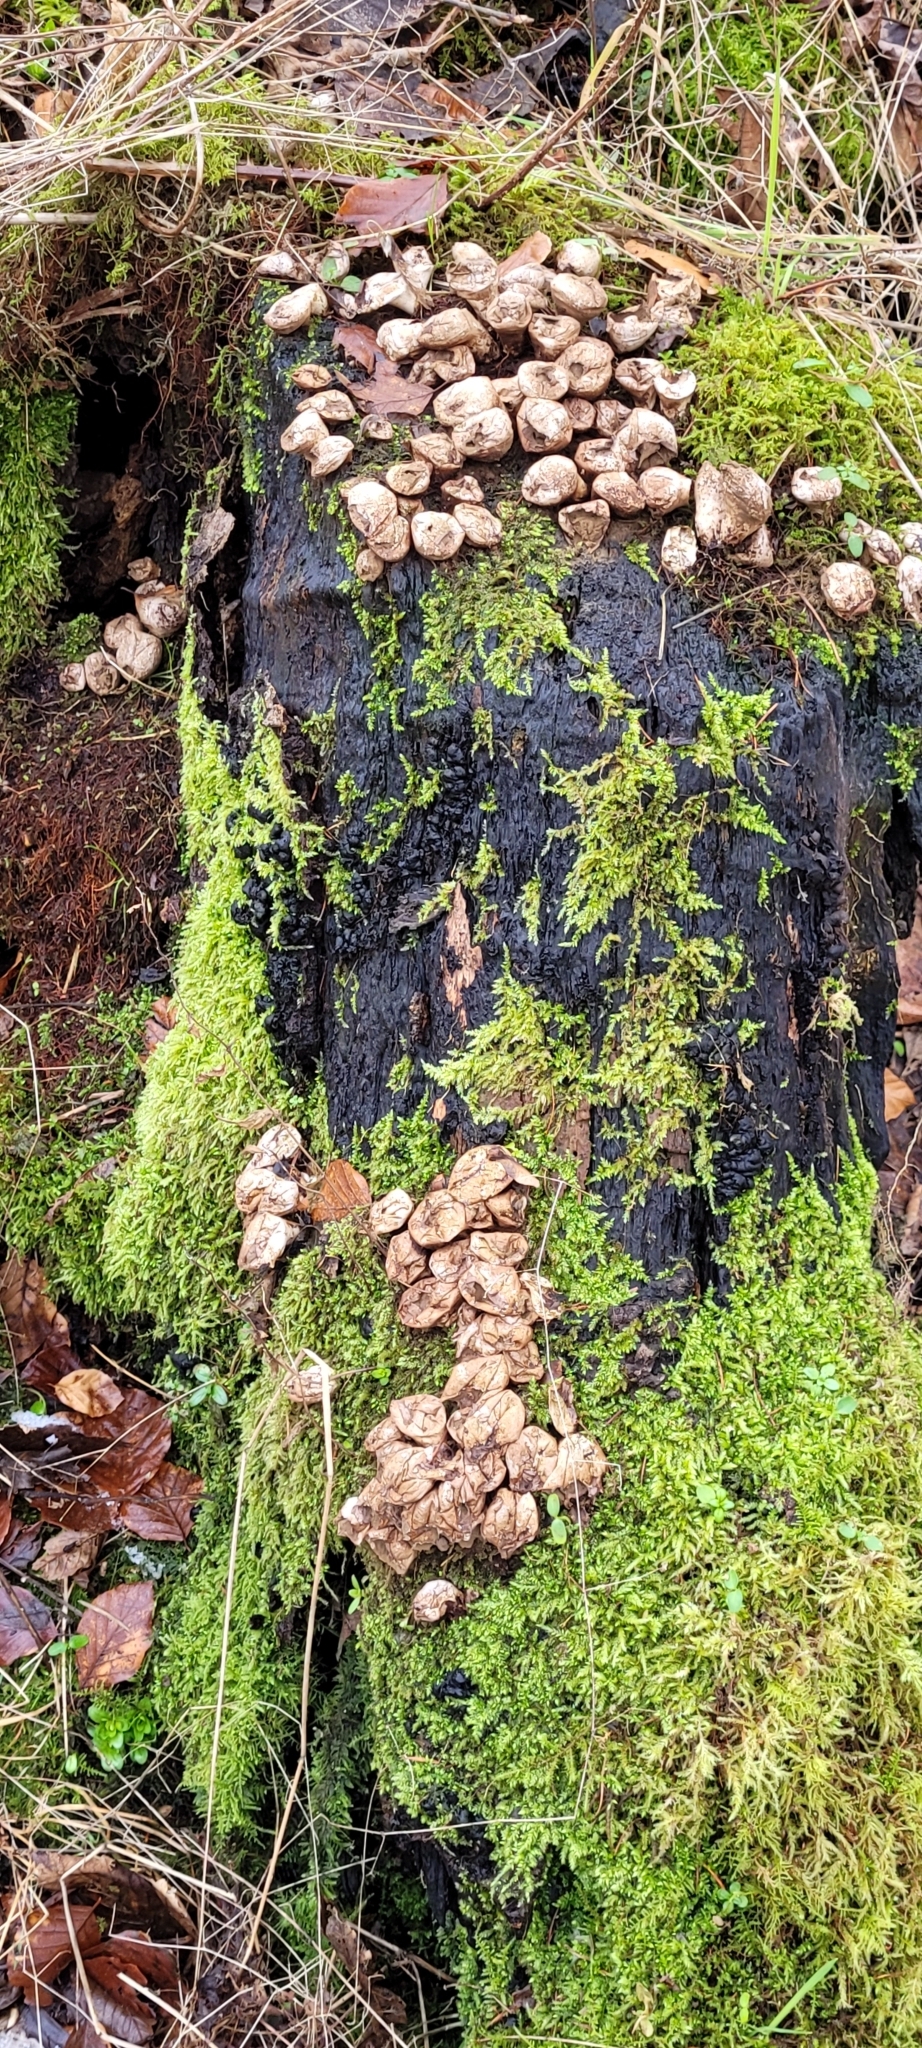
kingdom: Fungi
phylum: Basidiomycota
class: Agaricomycetes
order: Agaricales
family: Lycoperdaceae
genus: Apioperdon
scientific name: Apioperdon pyriforme
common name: Pear-shaped puffball
